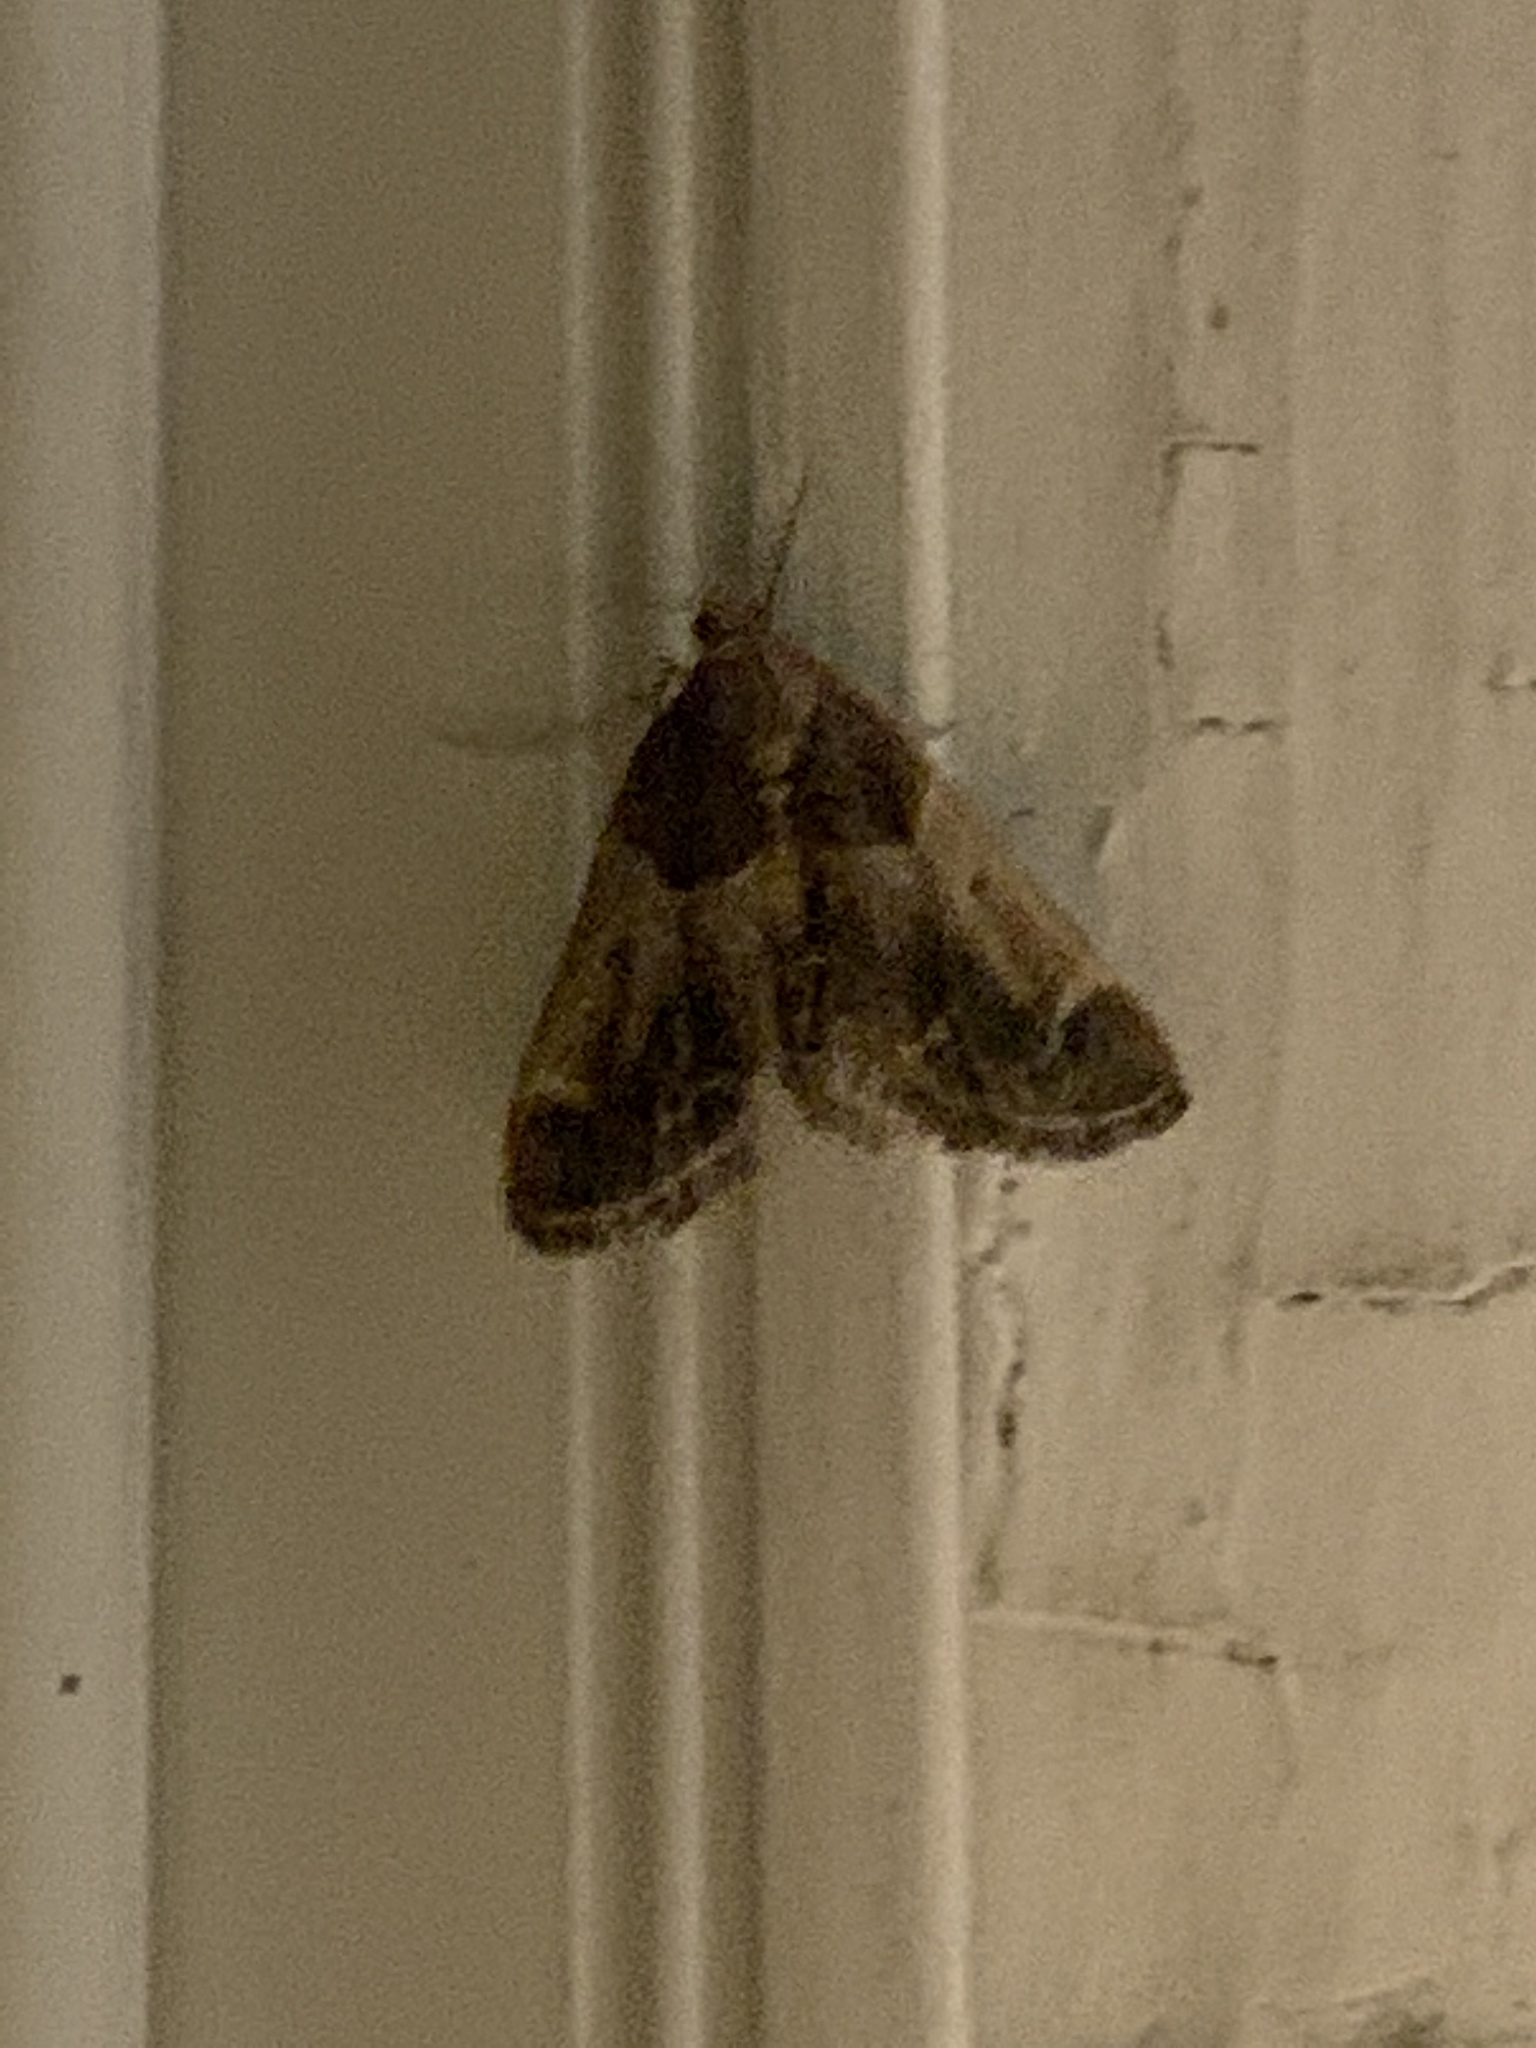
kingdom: Animalia
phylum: Arthropoda
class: Insecta
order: Lepidoptera
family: Pyralidae
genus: Pyralis
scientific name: Pyralis farinalis
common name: Meal moth
